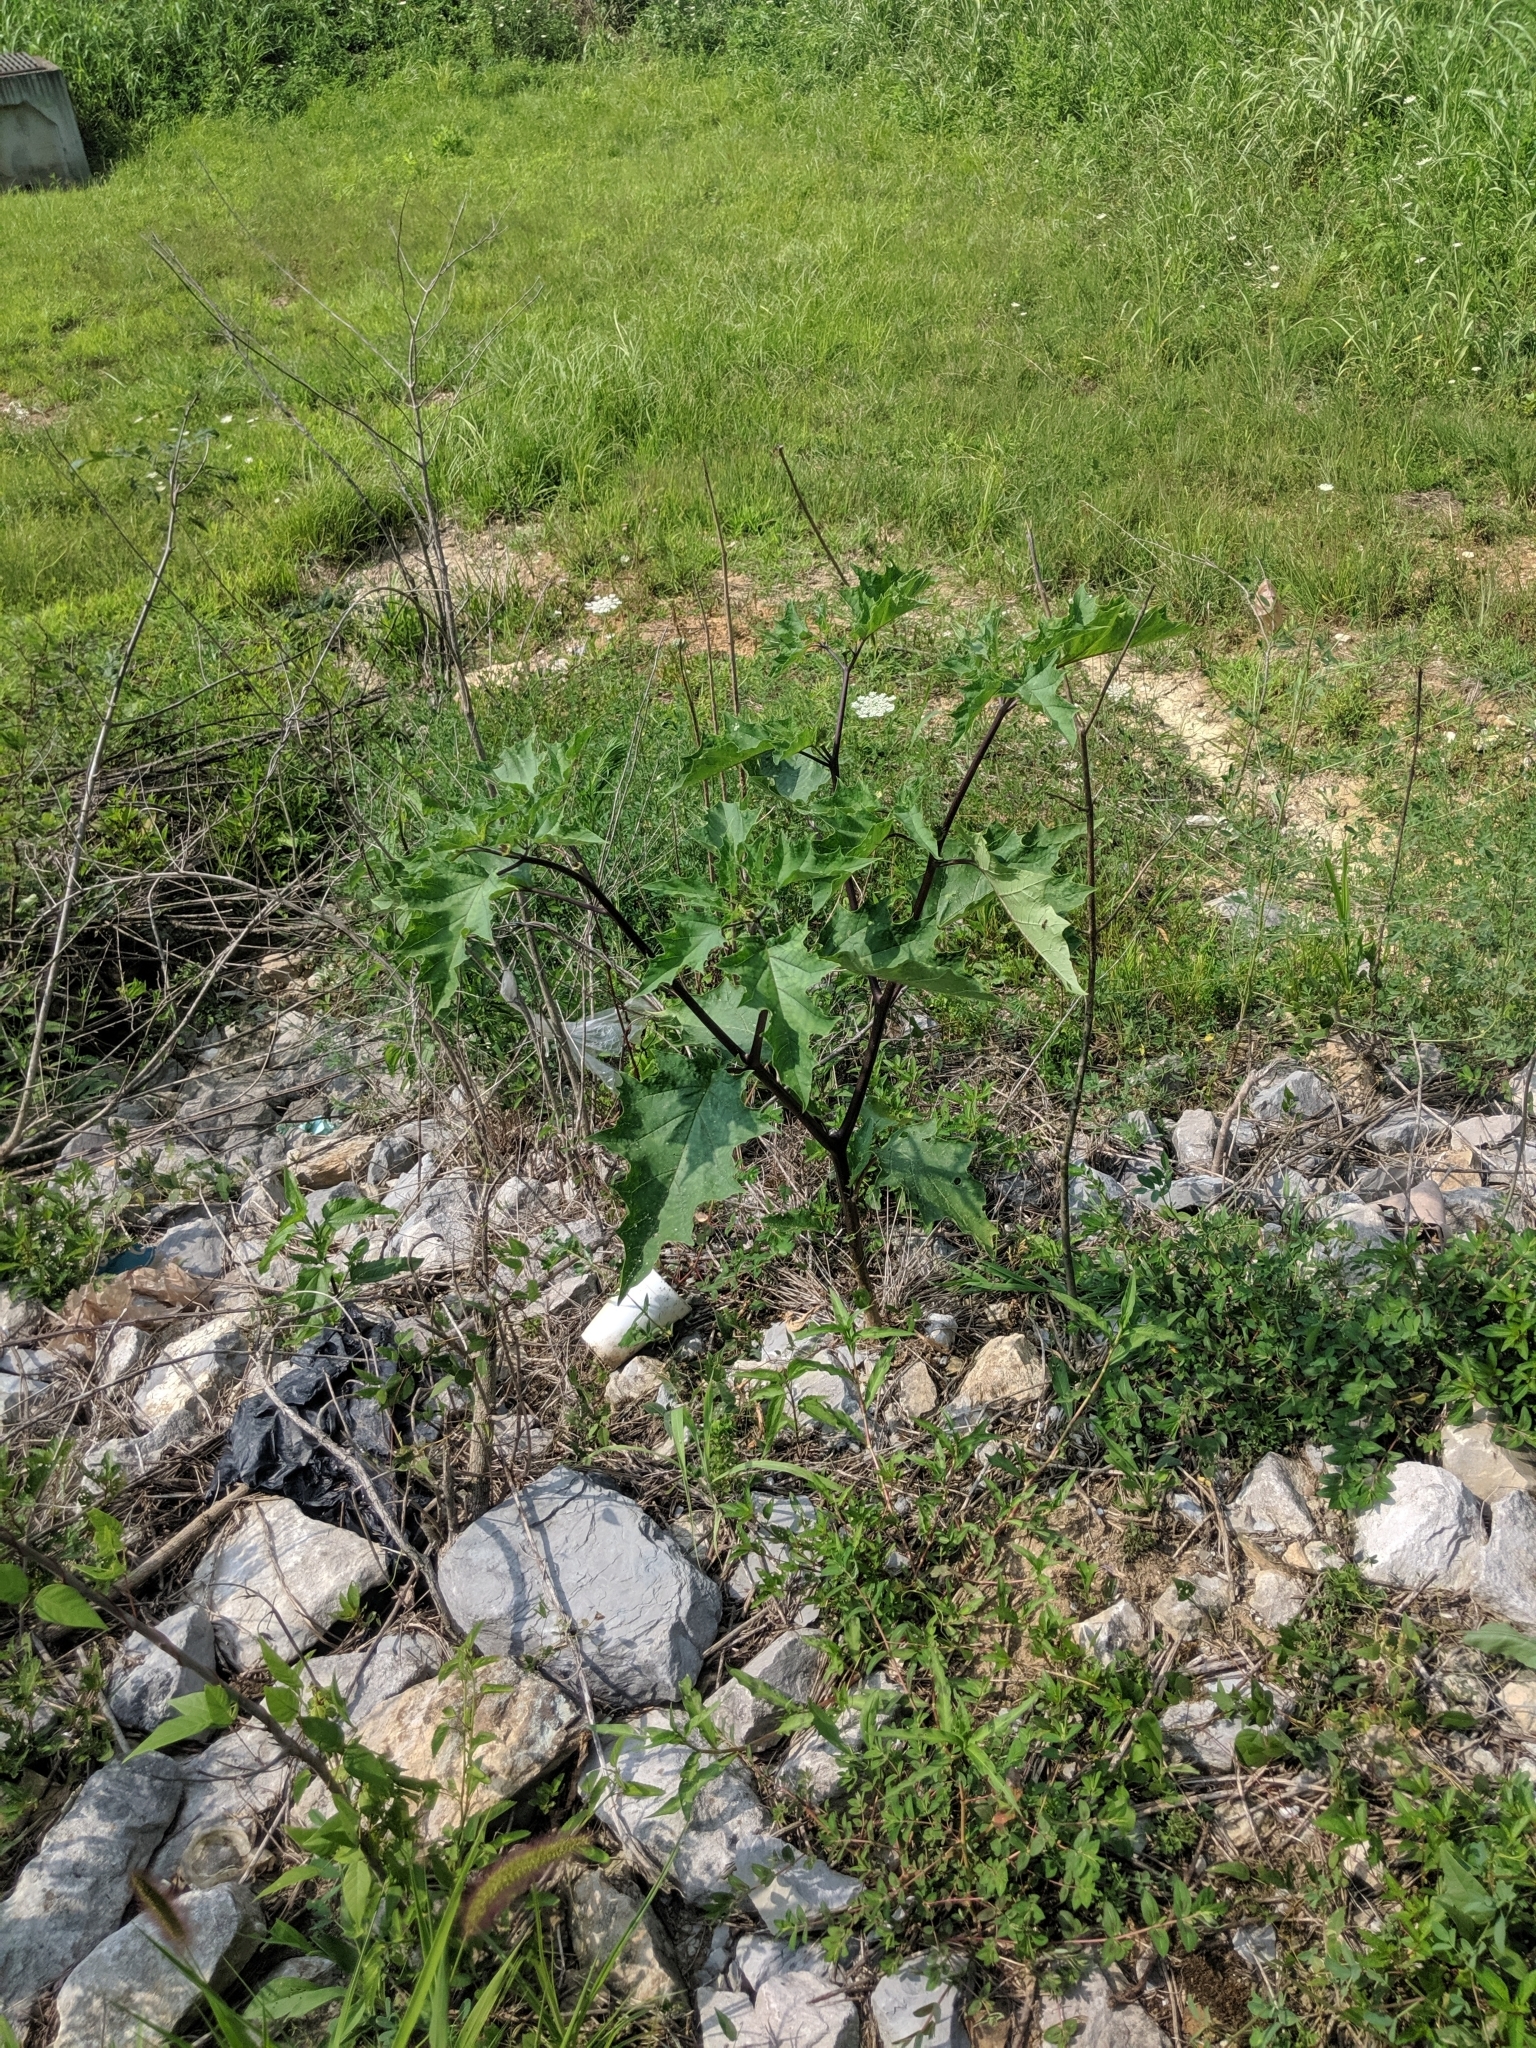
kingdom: Plantae
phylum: Tracheophyta
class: Magnoliopsida
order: Solanales
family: Solanaceae
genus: Datura
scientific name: Datura stramonium
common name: Thorn-apple
